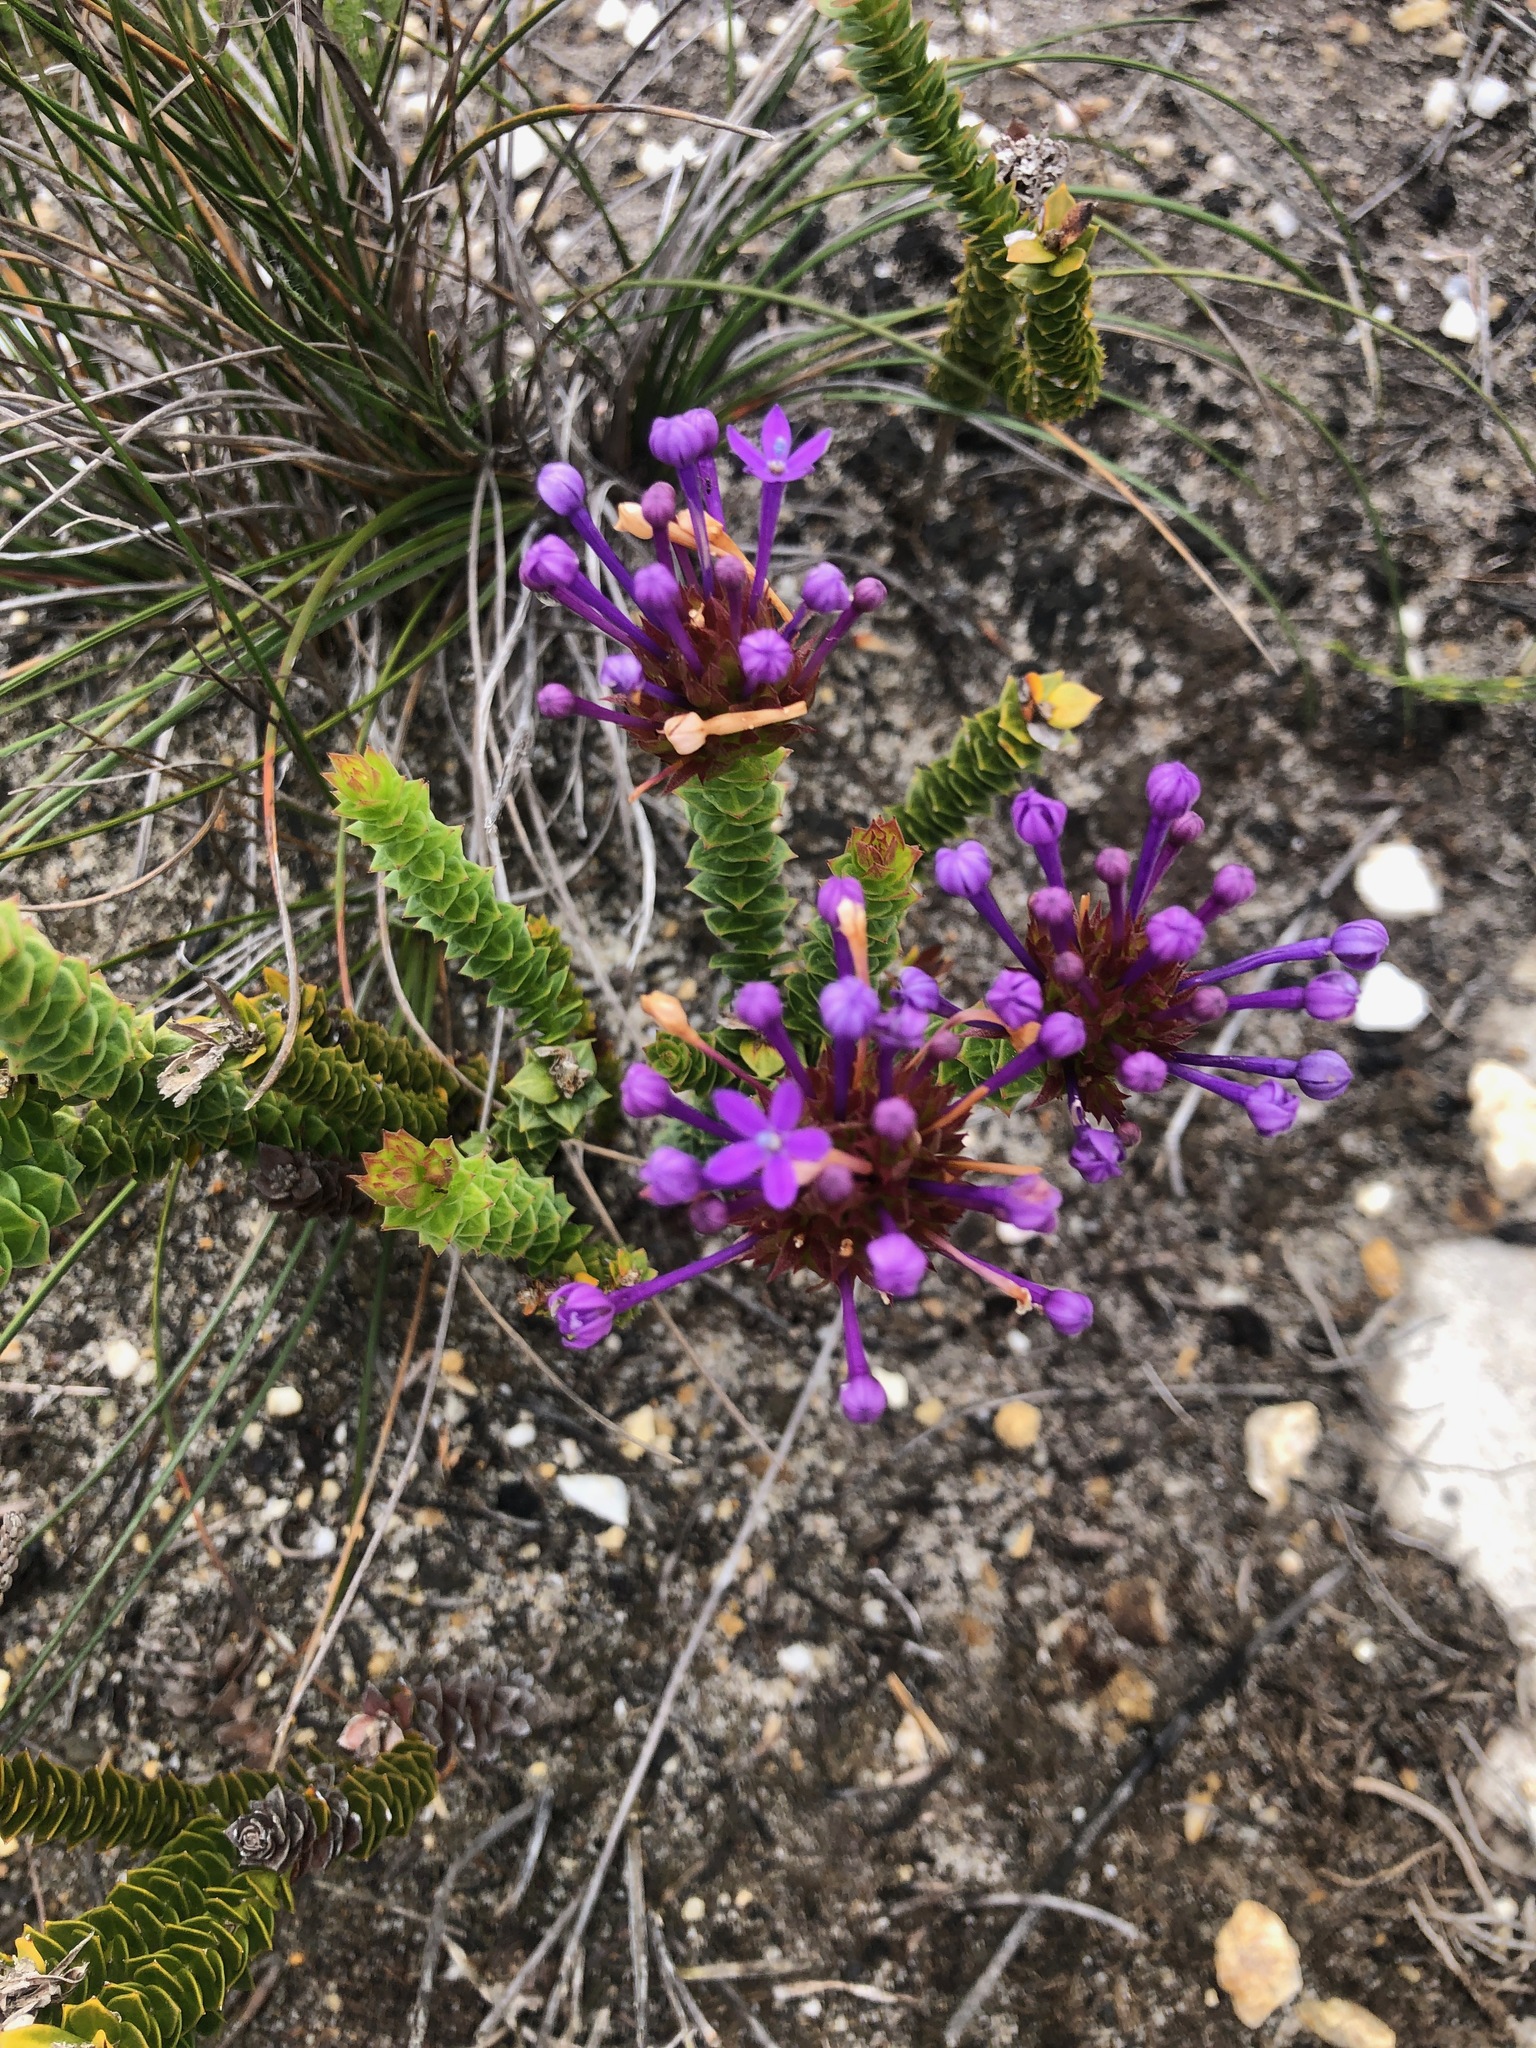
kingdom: Plantae
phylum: Tracheophyta
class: Magnoliopsida
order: Asterales
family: Campanulaceae
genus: Rhigiophyllum
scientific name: Rhigiophyllum squarrosum
